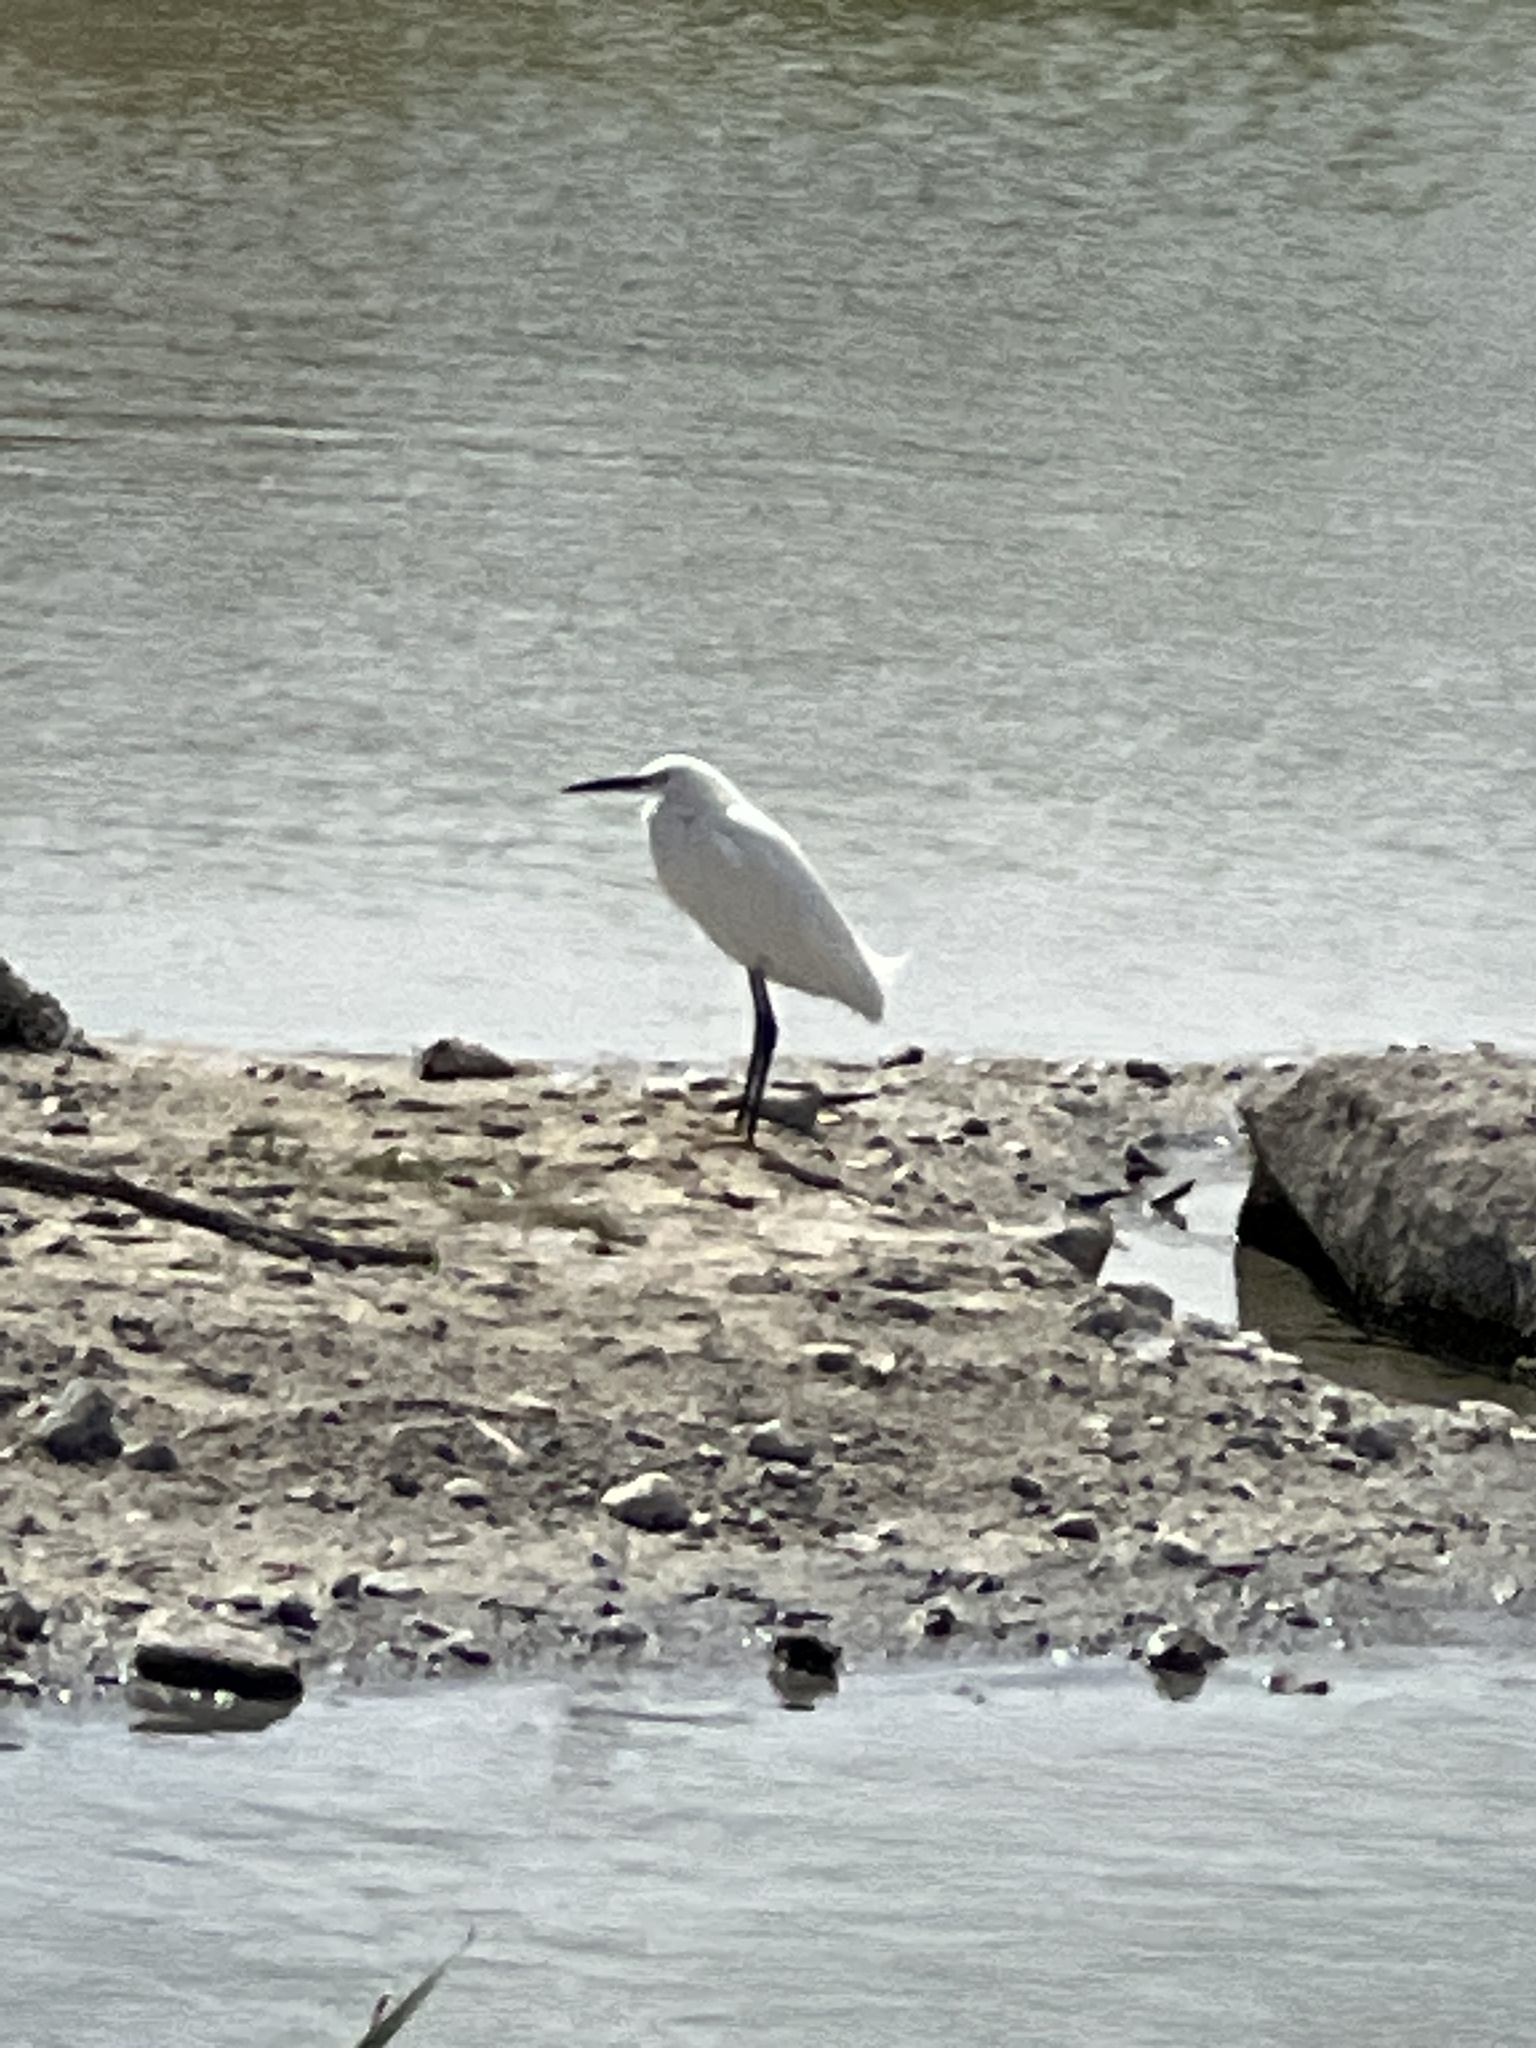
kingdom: Animalia
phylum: Chordata
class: Aves
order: Pelecaniformes
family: Ardeidae
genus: Egretta
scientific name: Egretta thula
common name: Snowy egret
